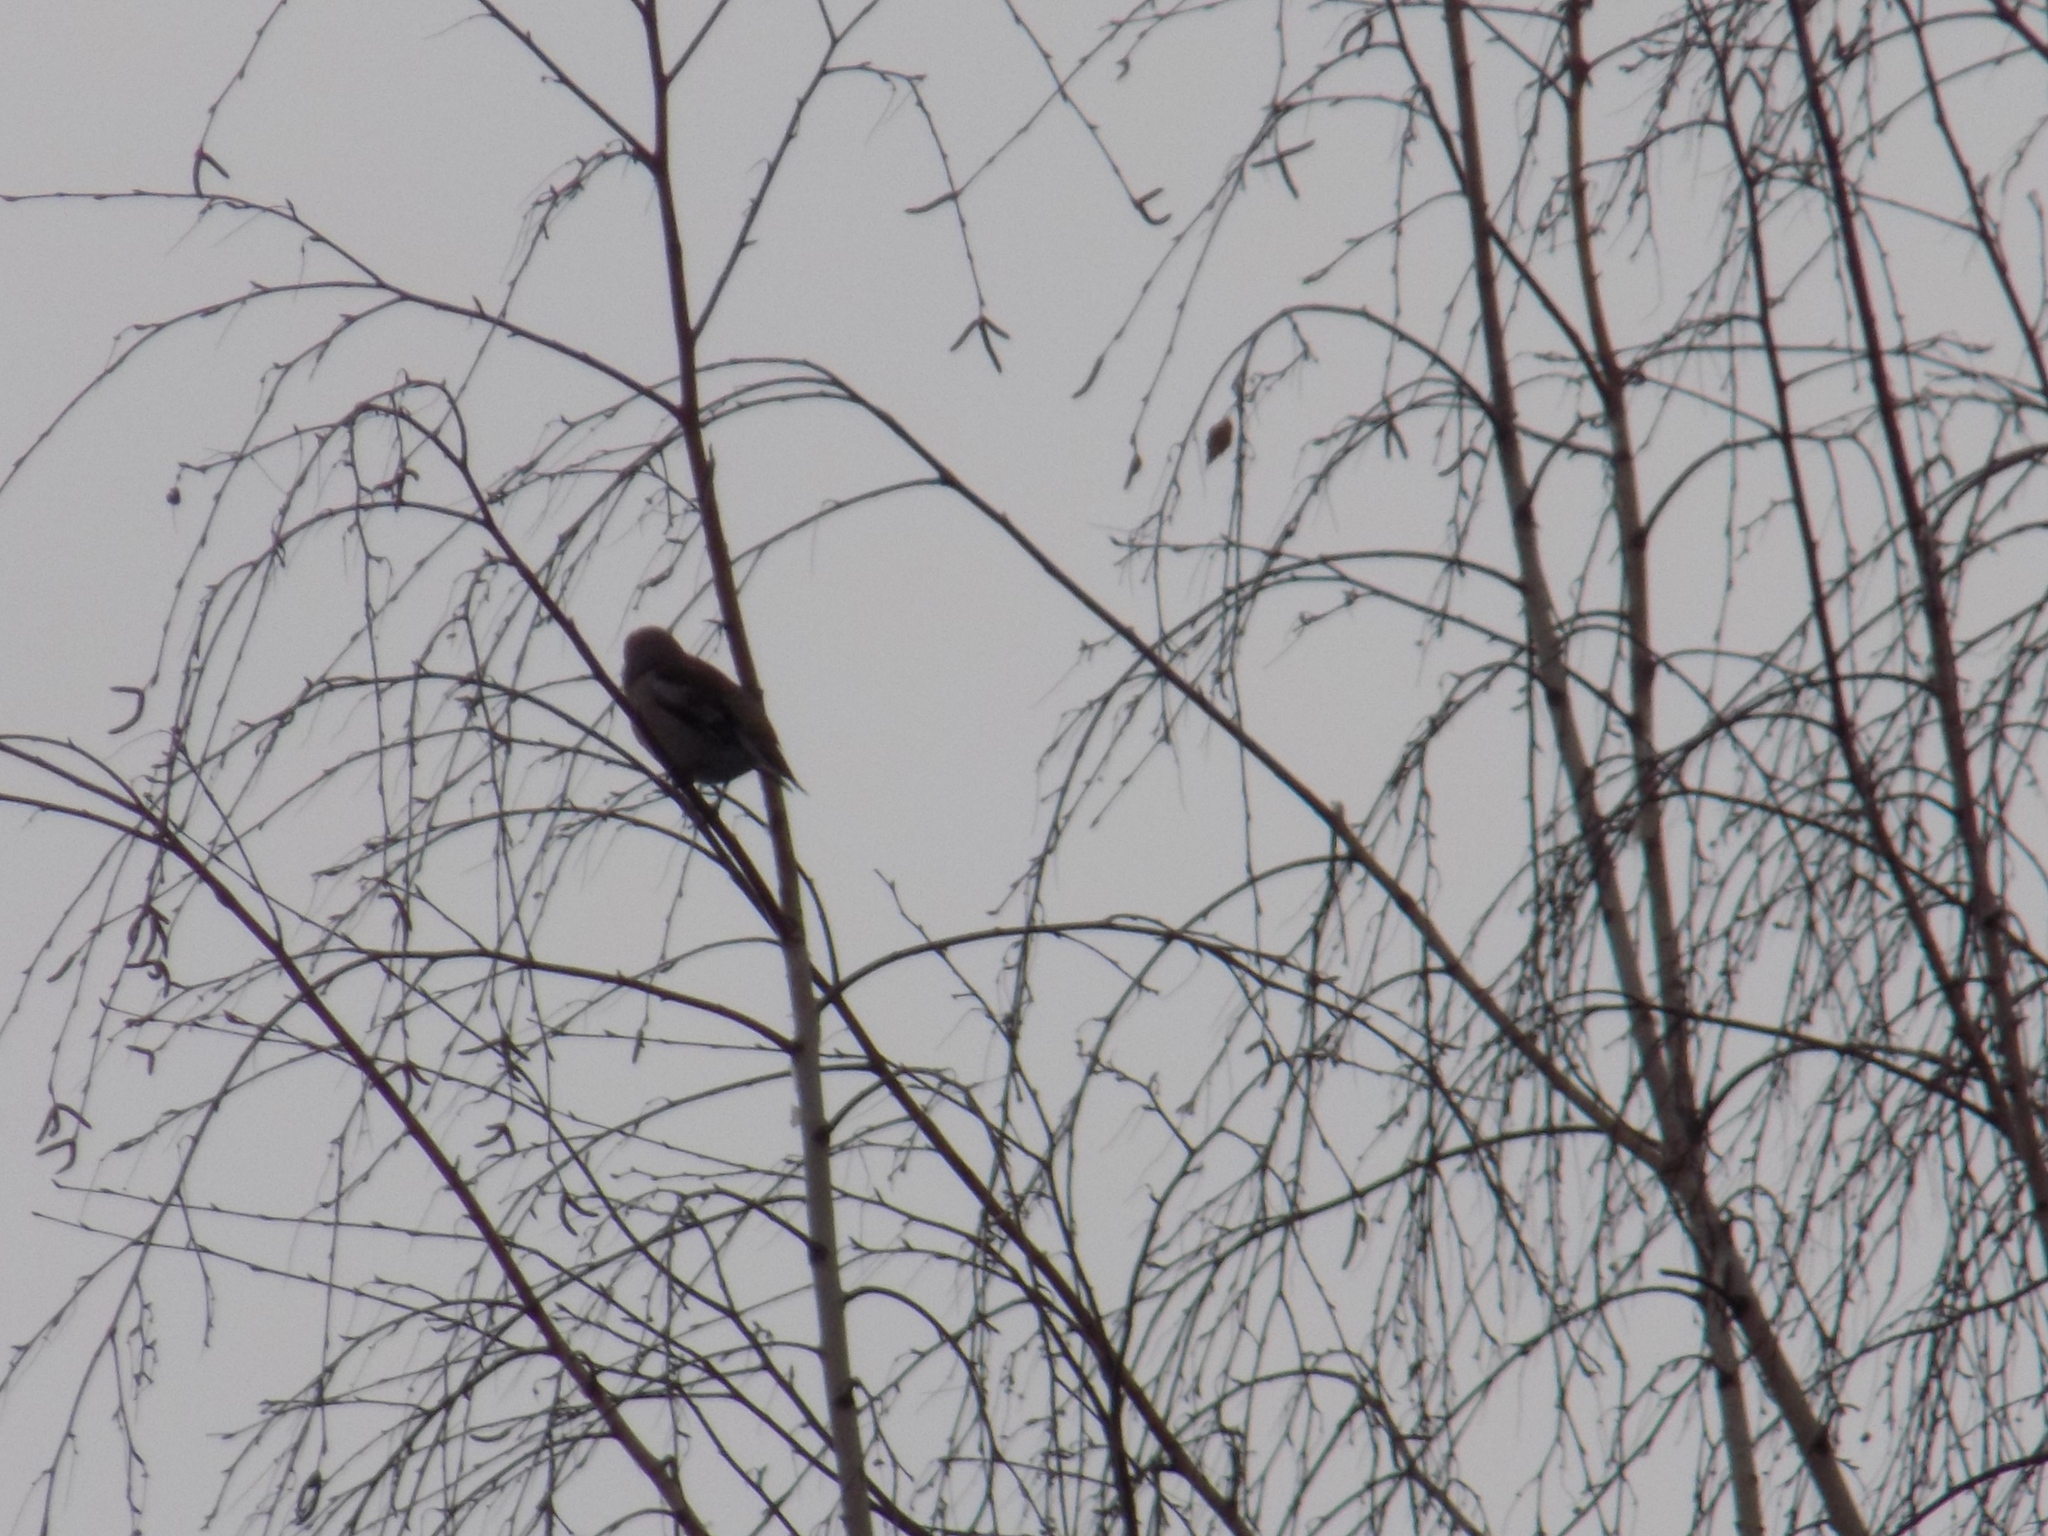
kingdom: Animalia
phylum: Chordata
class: Aves
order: Passeriformes
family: Fringillidae
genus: Coccothraustes
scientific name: Coccothraustes coccothraustes
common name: Hawfinch
